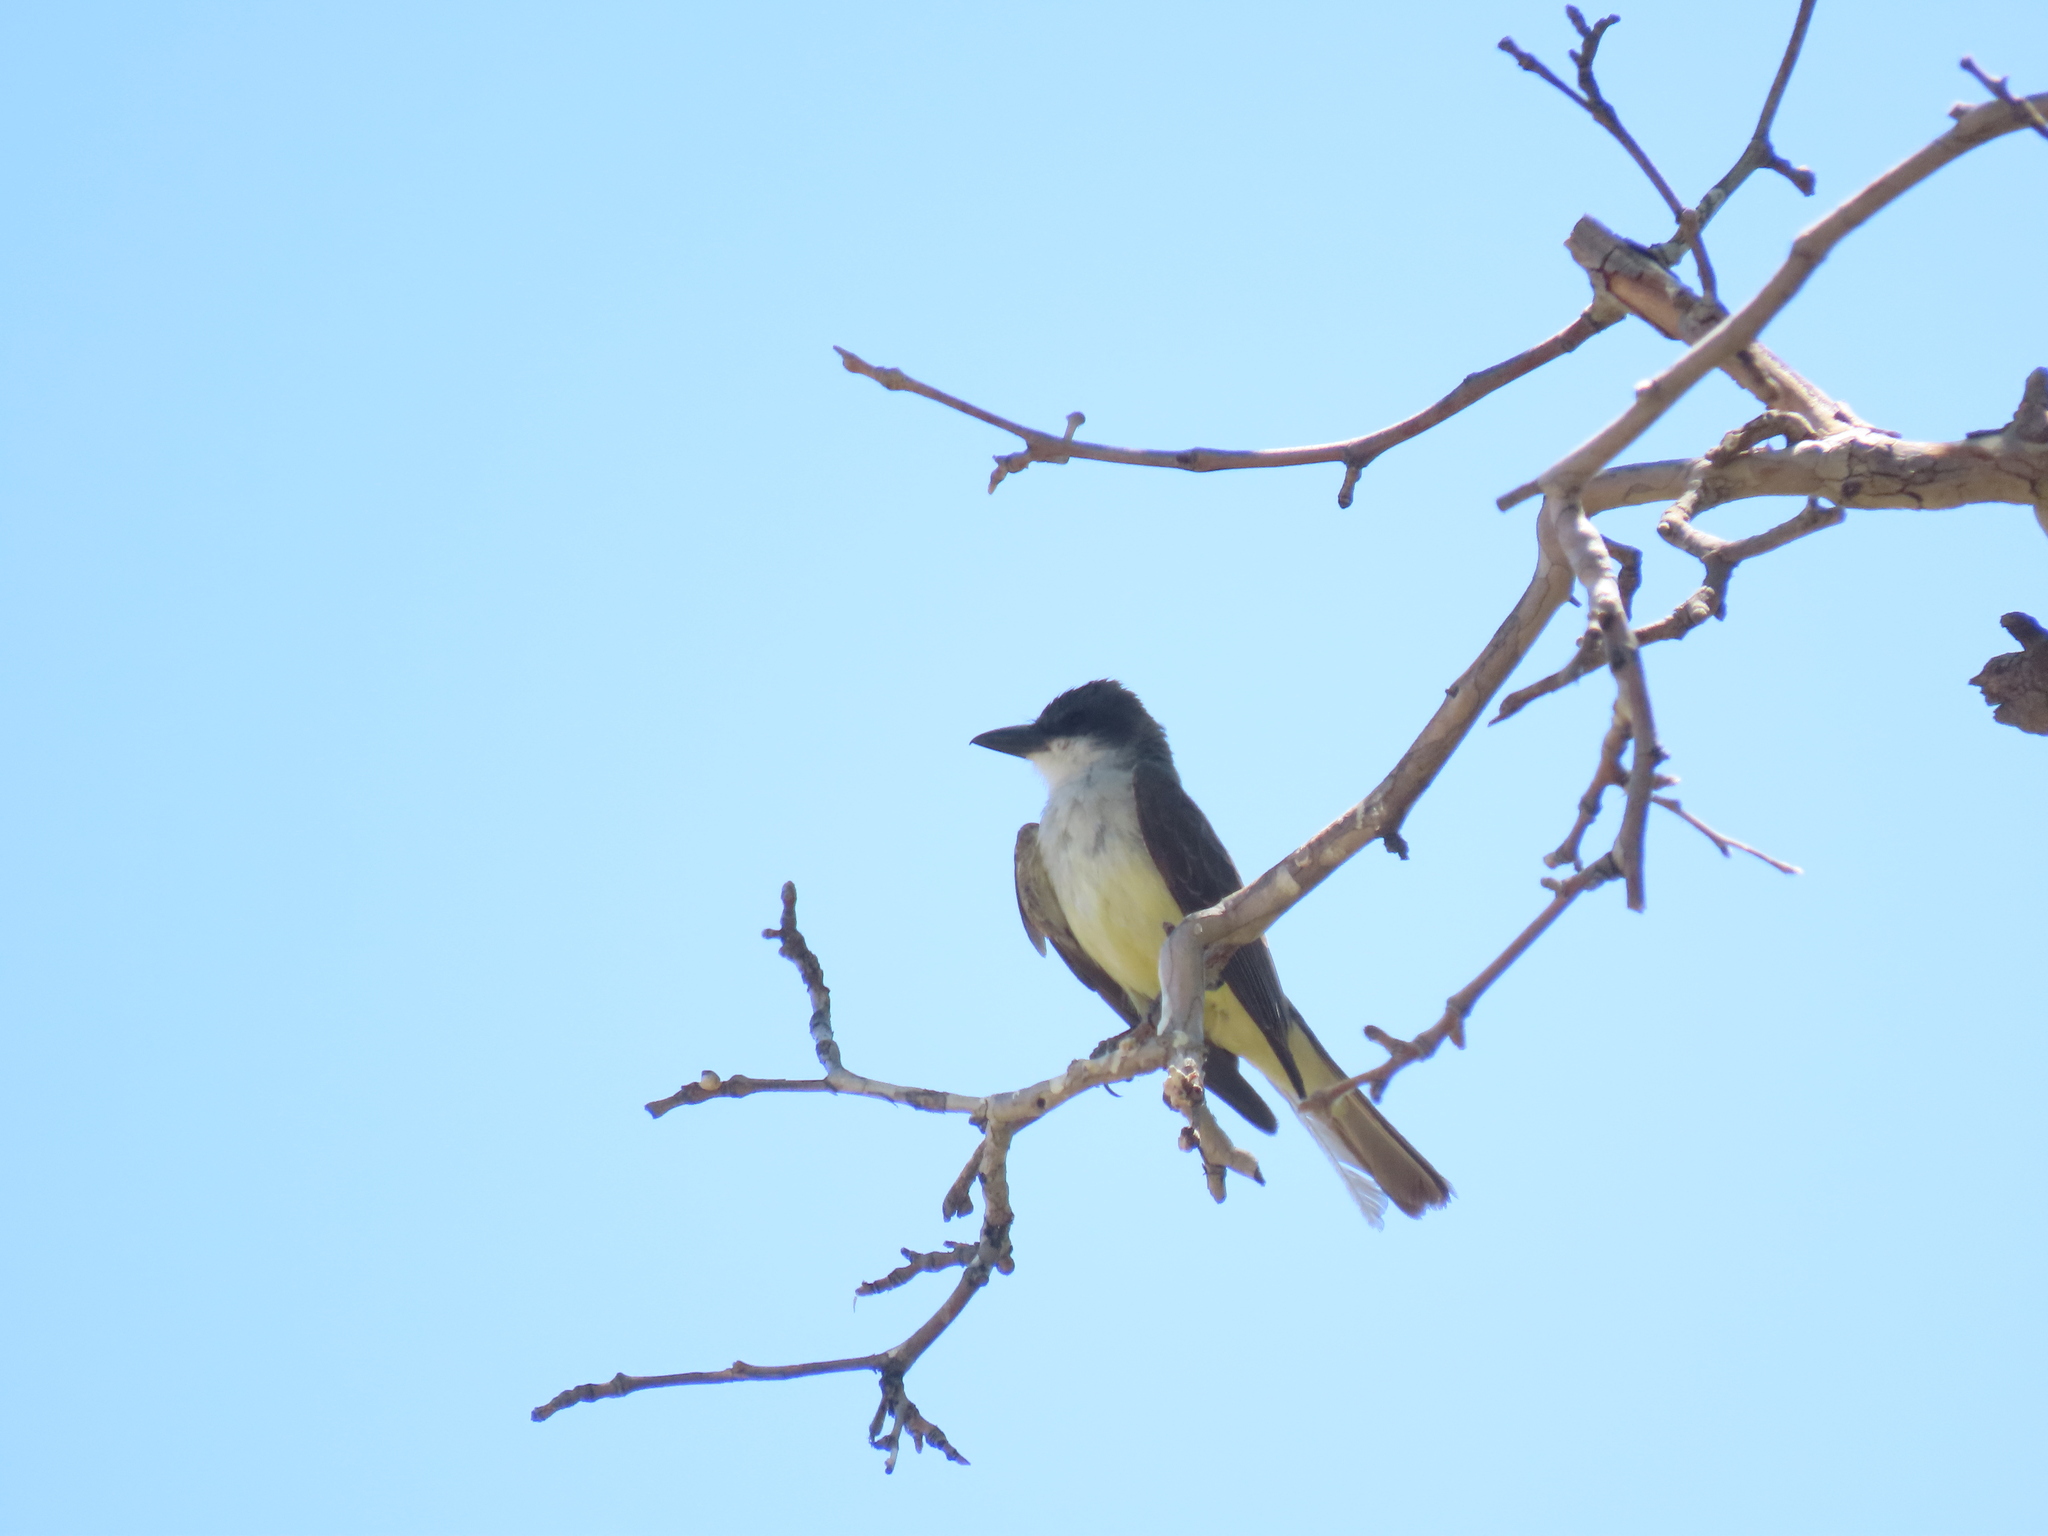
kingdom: Animalia
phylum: Chordata
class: Aves
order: Passeriformes
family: Tyrannidae
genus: Tyrannus
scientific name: Tyrannus crassirostris
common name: Thick-billed kingbird
